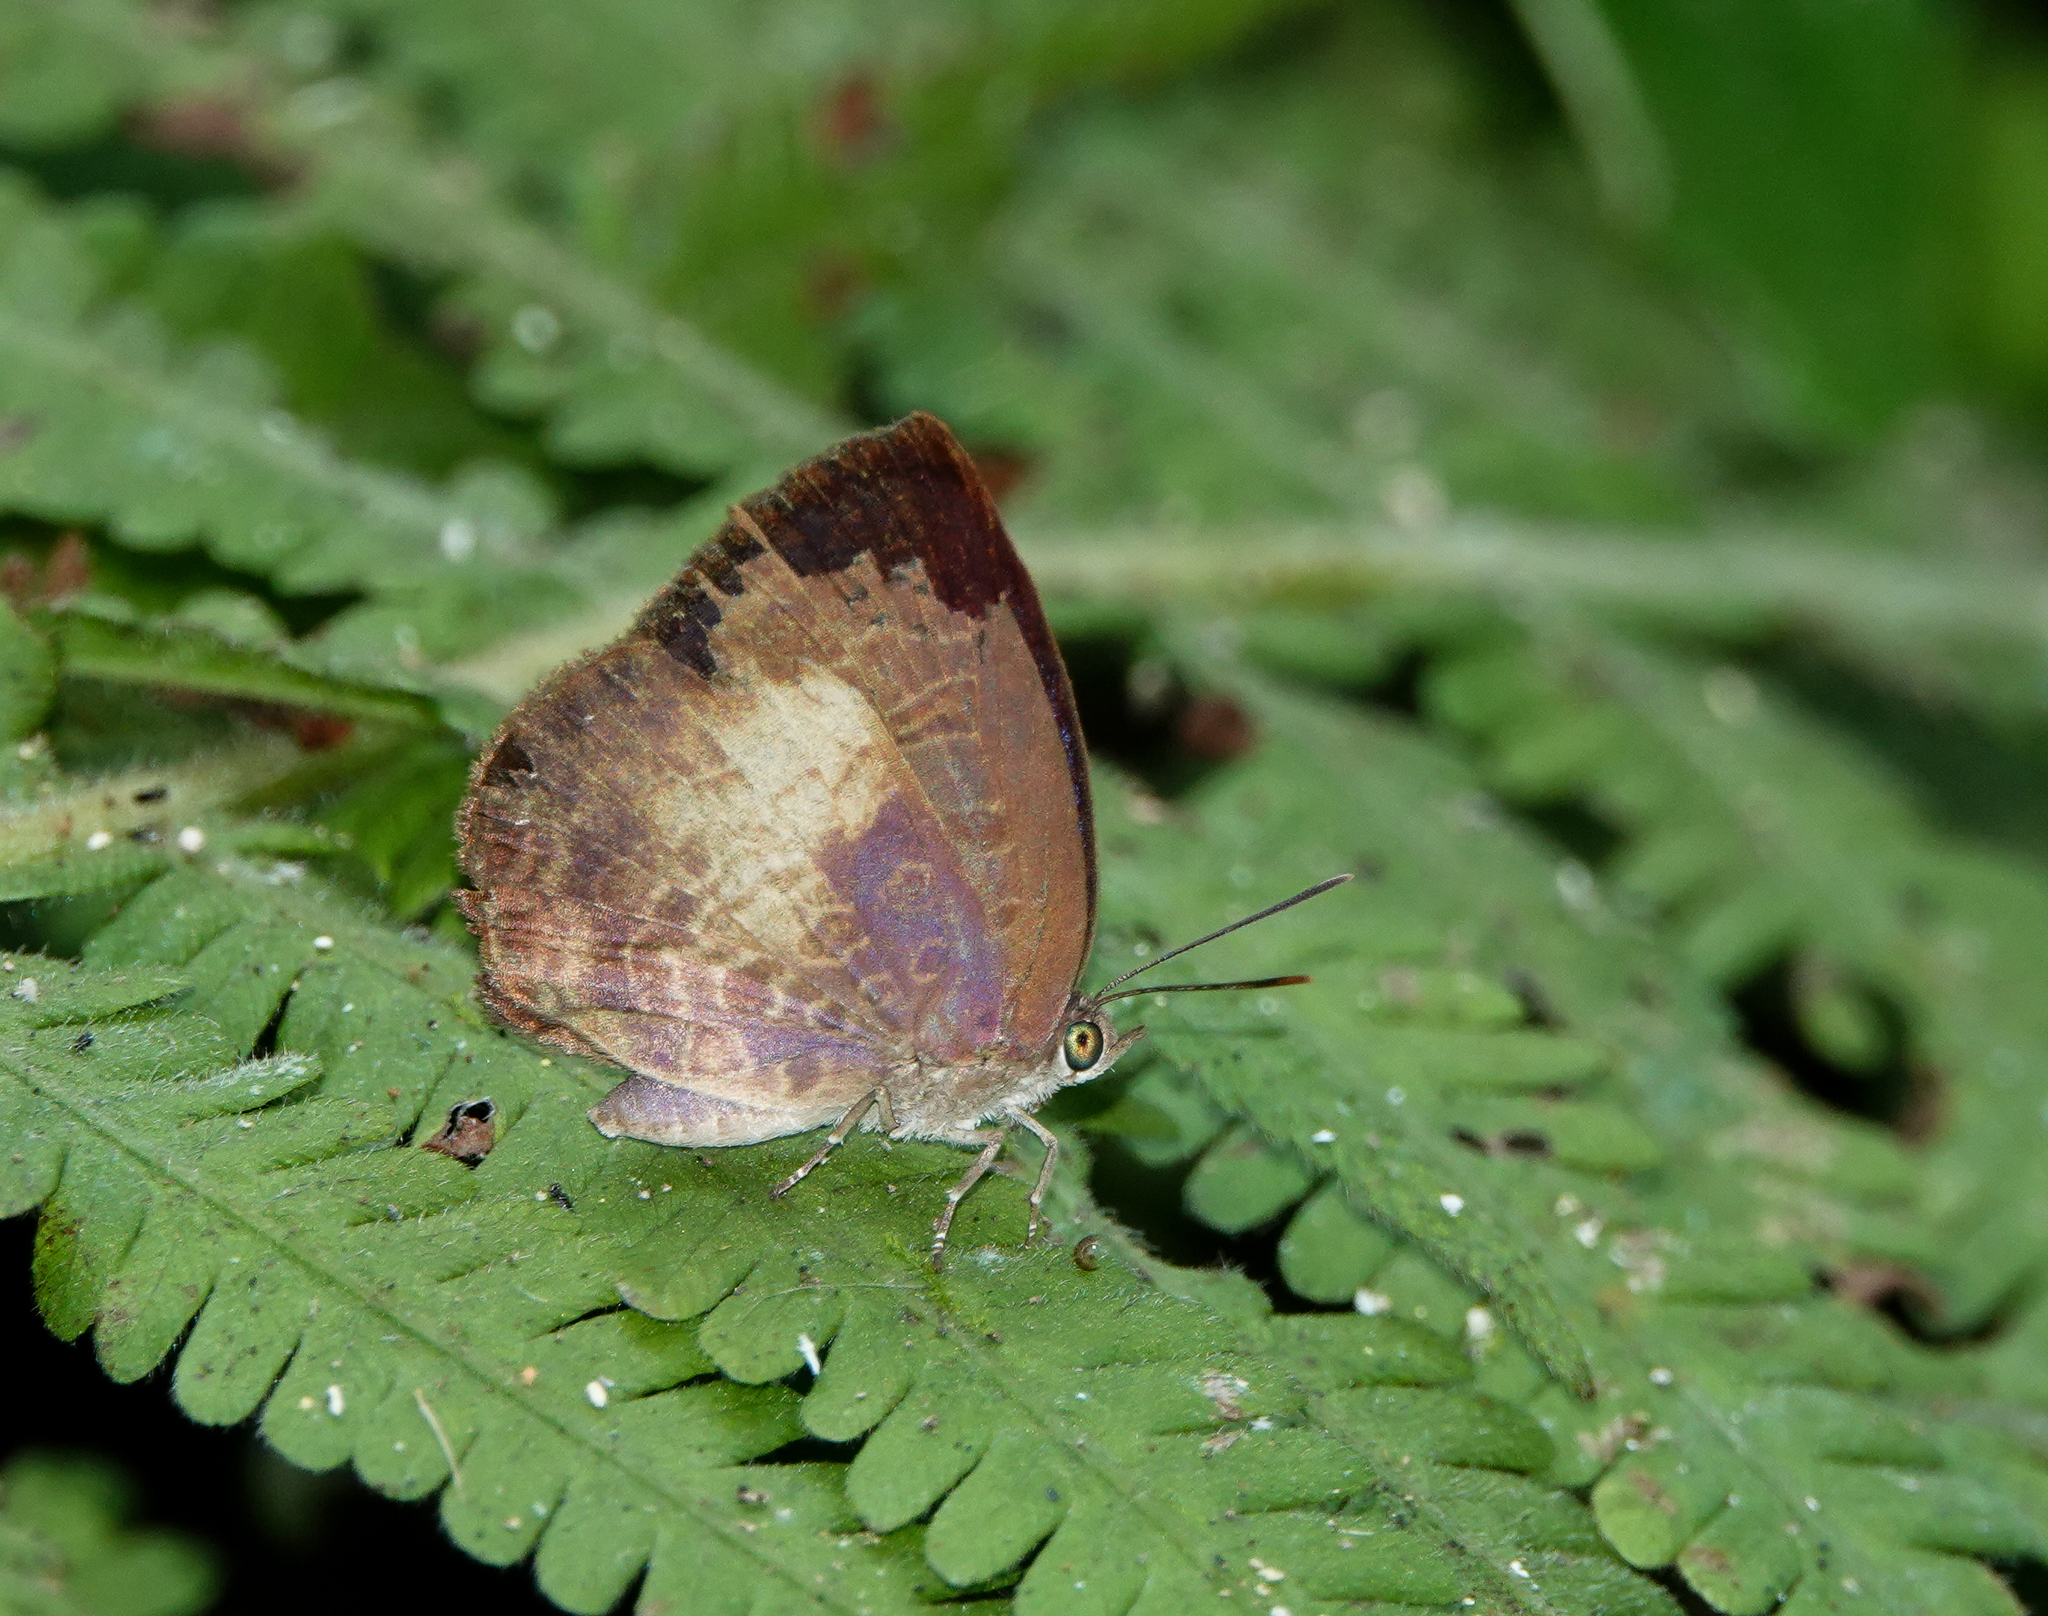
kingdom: Animalia
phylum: Arthropoda
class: Insecta
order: Lepidoptera
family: Lycaenidae
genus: Arhopala
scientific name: Arhopala perimuta
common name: Yellowdisc oakblue
